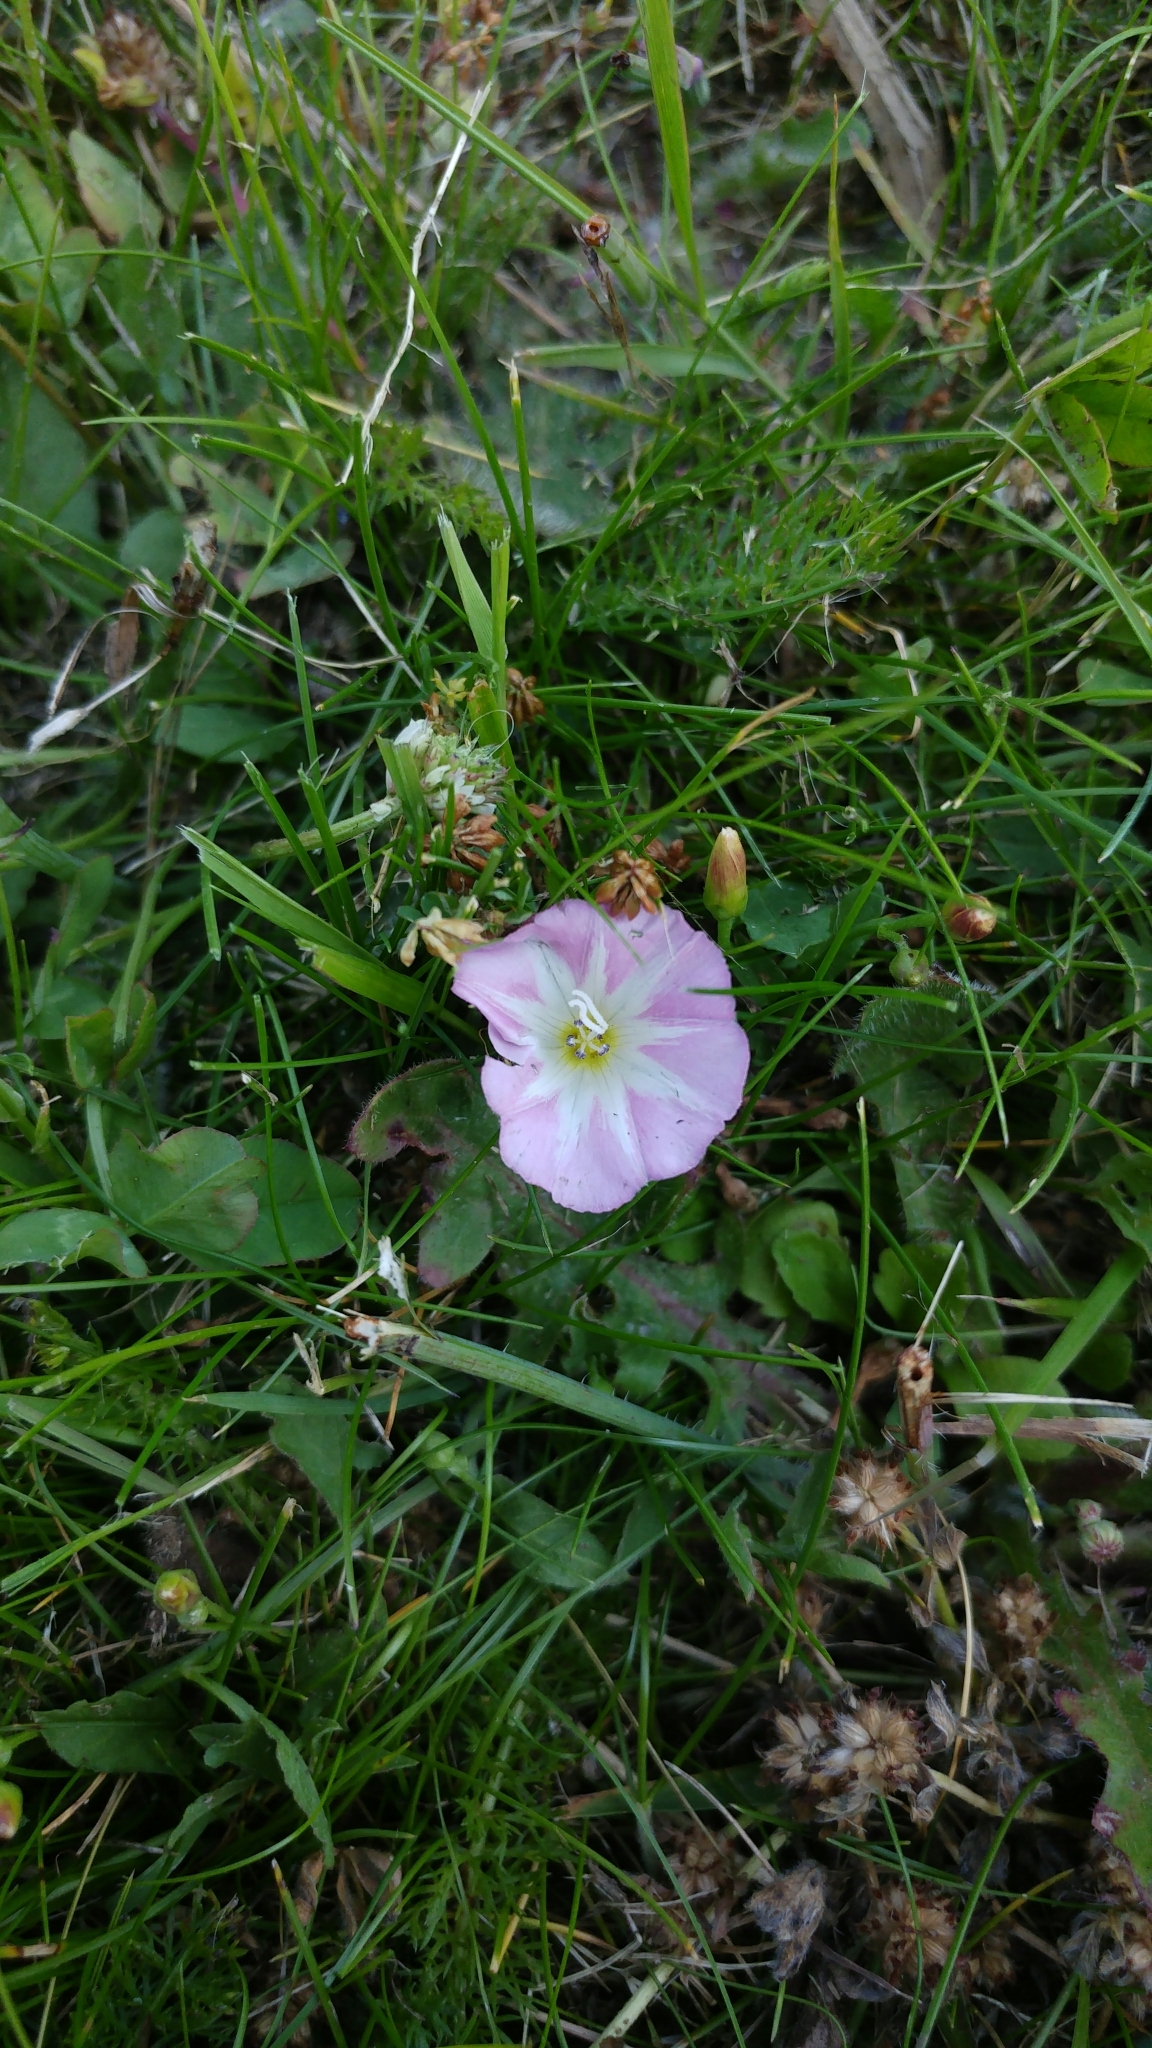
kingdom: Plantae
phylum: Tracheophyta
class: Magnoliopsida
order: Solanales
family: Convolvulaceae
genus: Convolvulus
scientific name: Convolvulus arvensis
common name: Field bindweed
